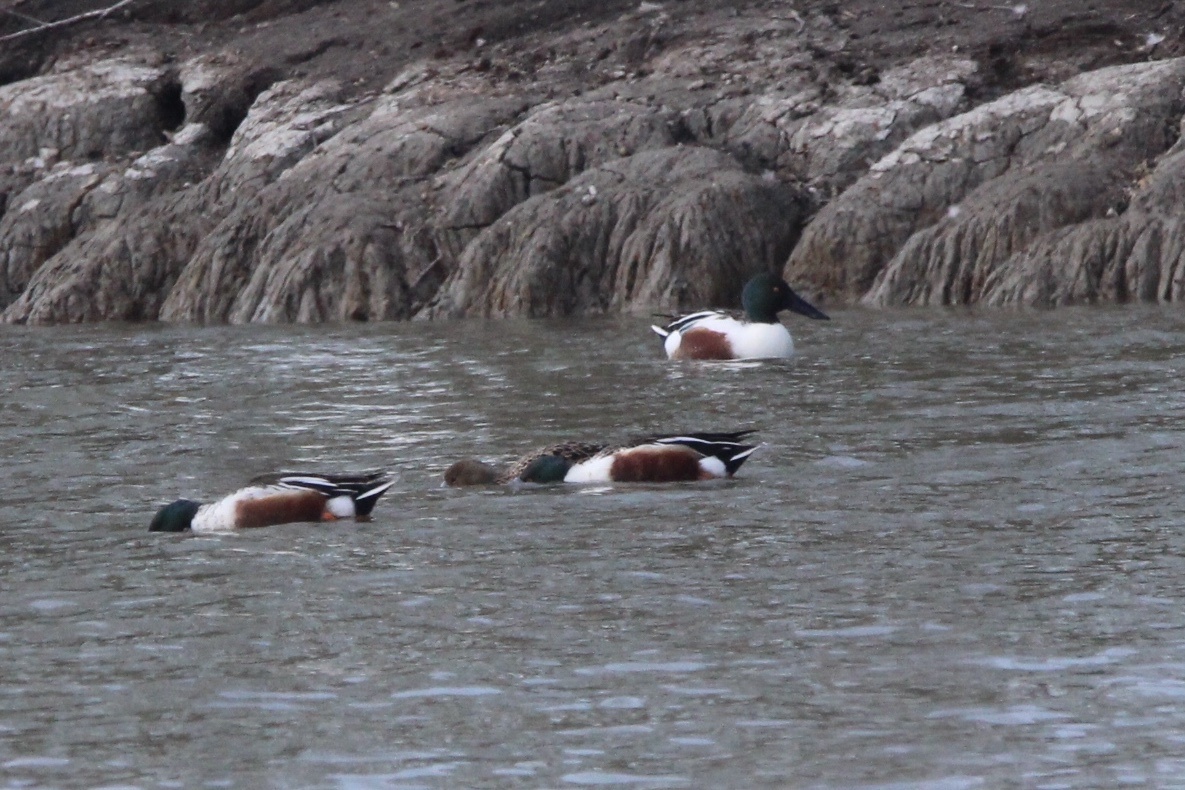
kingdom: Animalia
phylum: Chordata
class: Aves
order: Anseriformes
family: Anatidae
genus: Spatula
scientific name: Spatula clypeata
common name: Northern shoveler
